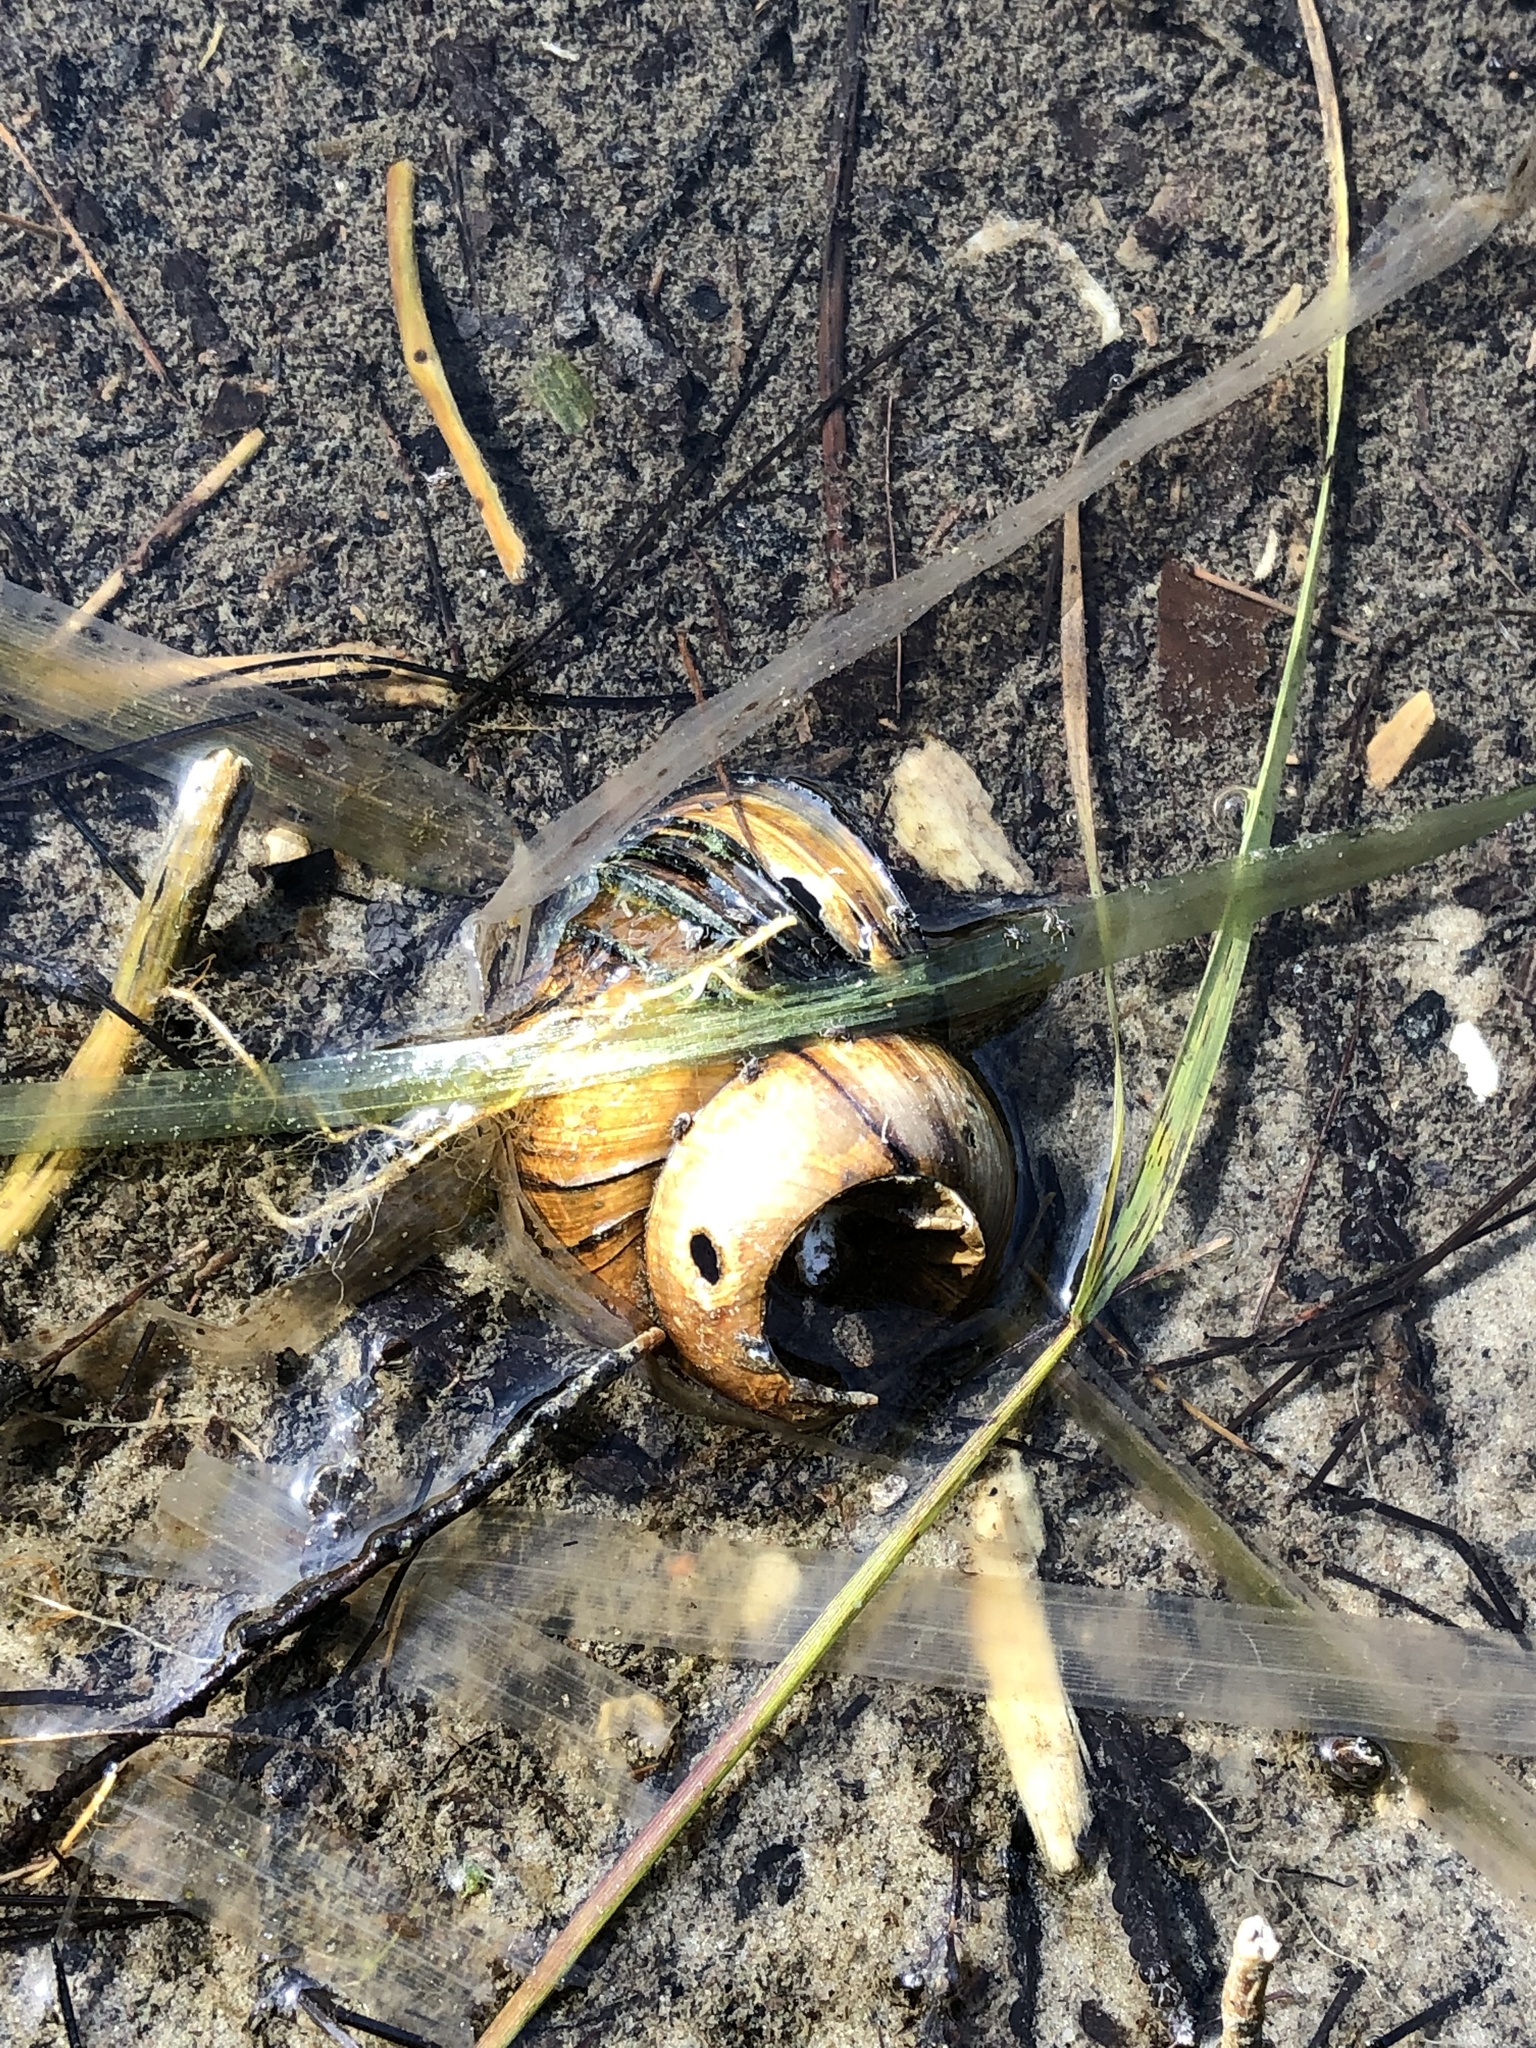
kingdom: Animalia
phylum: Mollusca
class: Gastropoda
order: Architaenioglossa
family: Viviparidae
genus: Cipangopaludina
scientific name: Cipangopaludina chinensis
